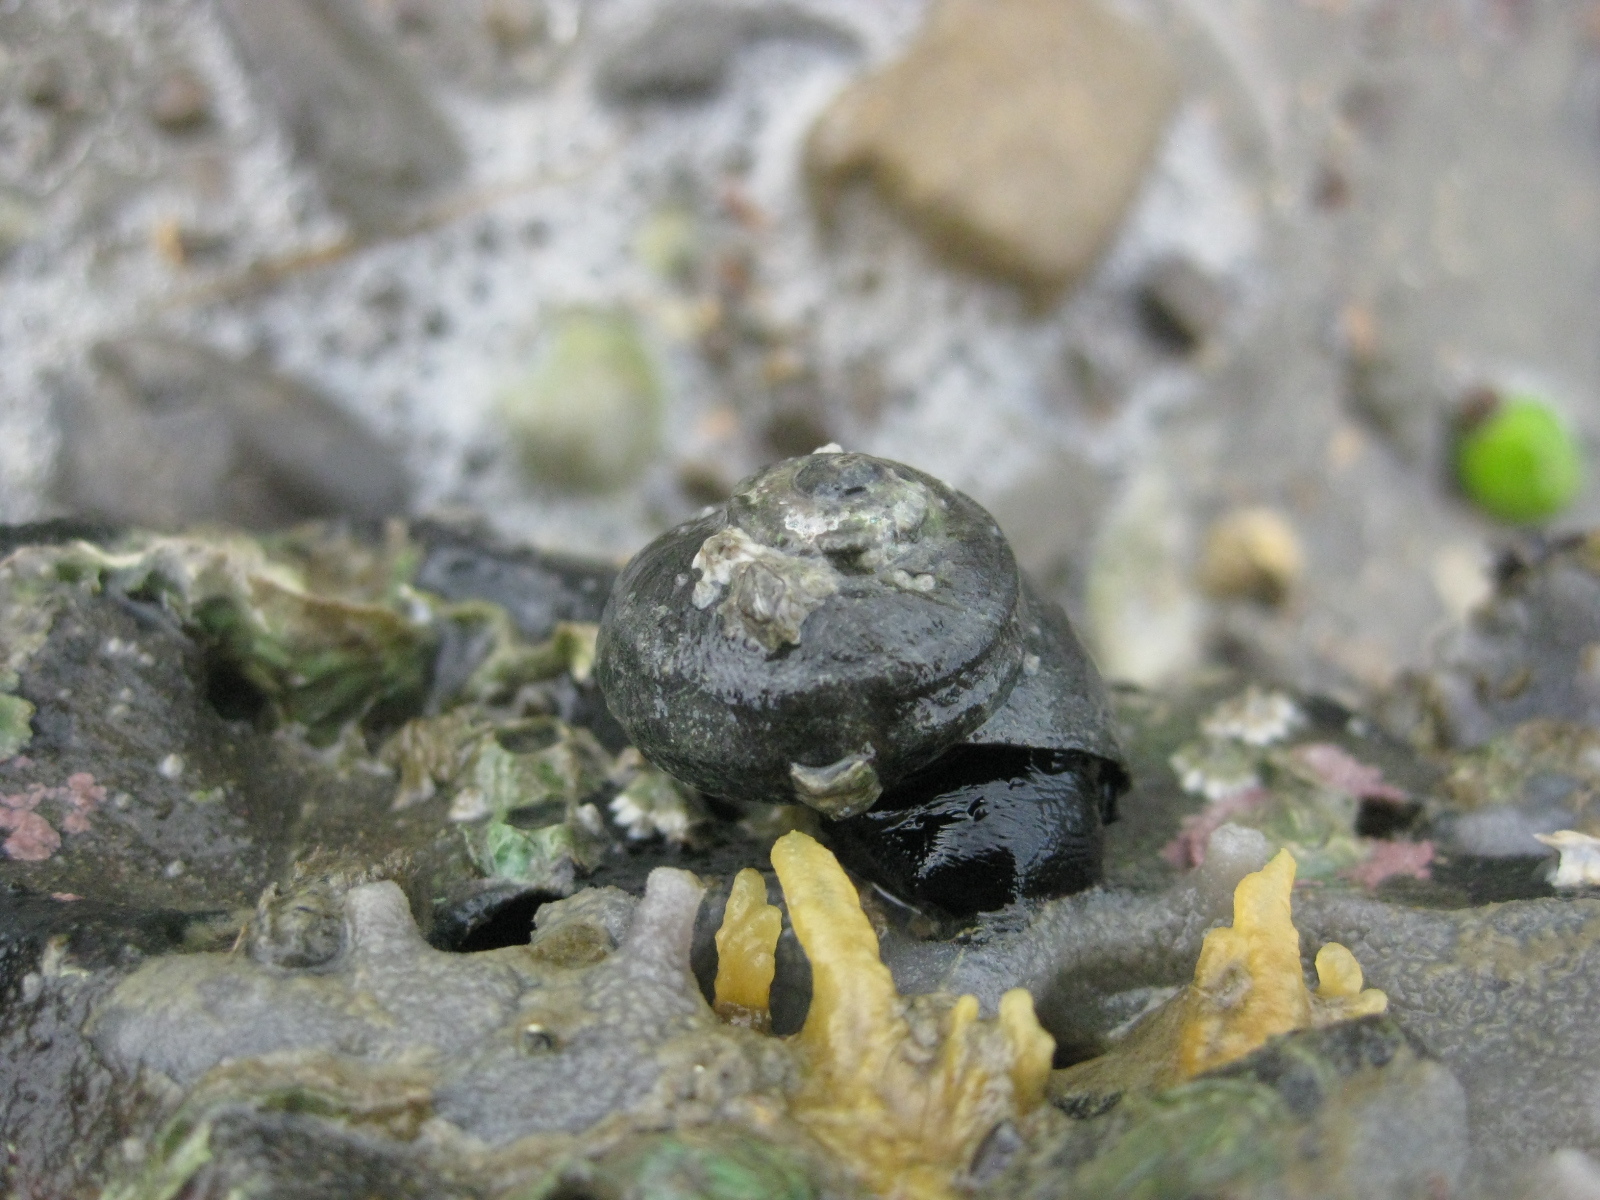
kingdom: Animalia
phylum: Mollusca
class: Gastropoda
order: Trochida
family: Turbinidae
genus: Lunella
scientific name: Lunella smaragda
